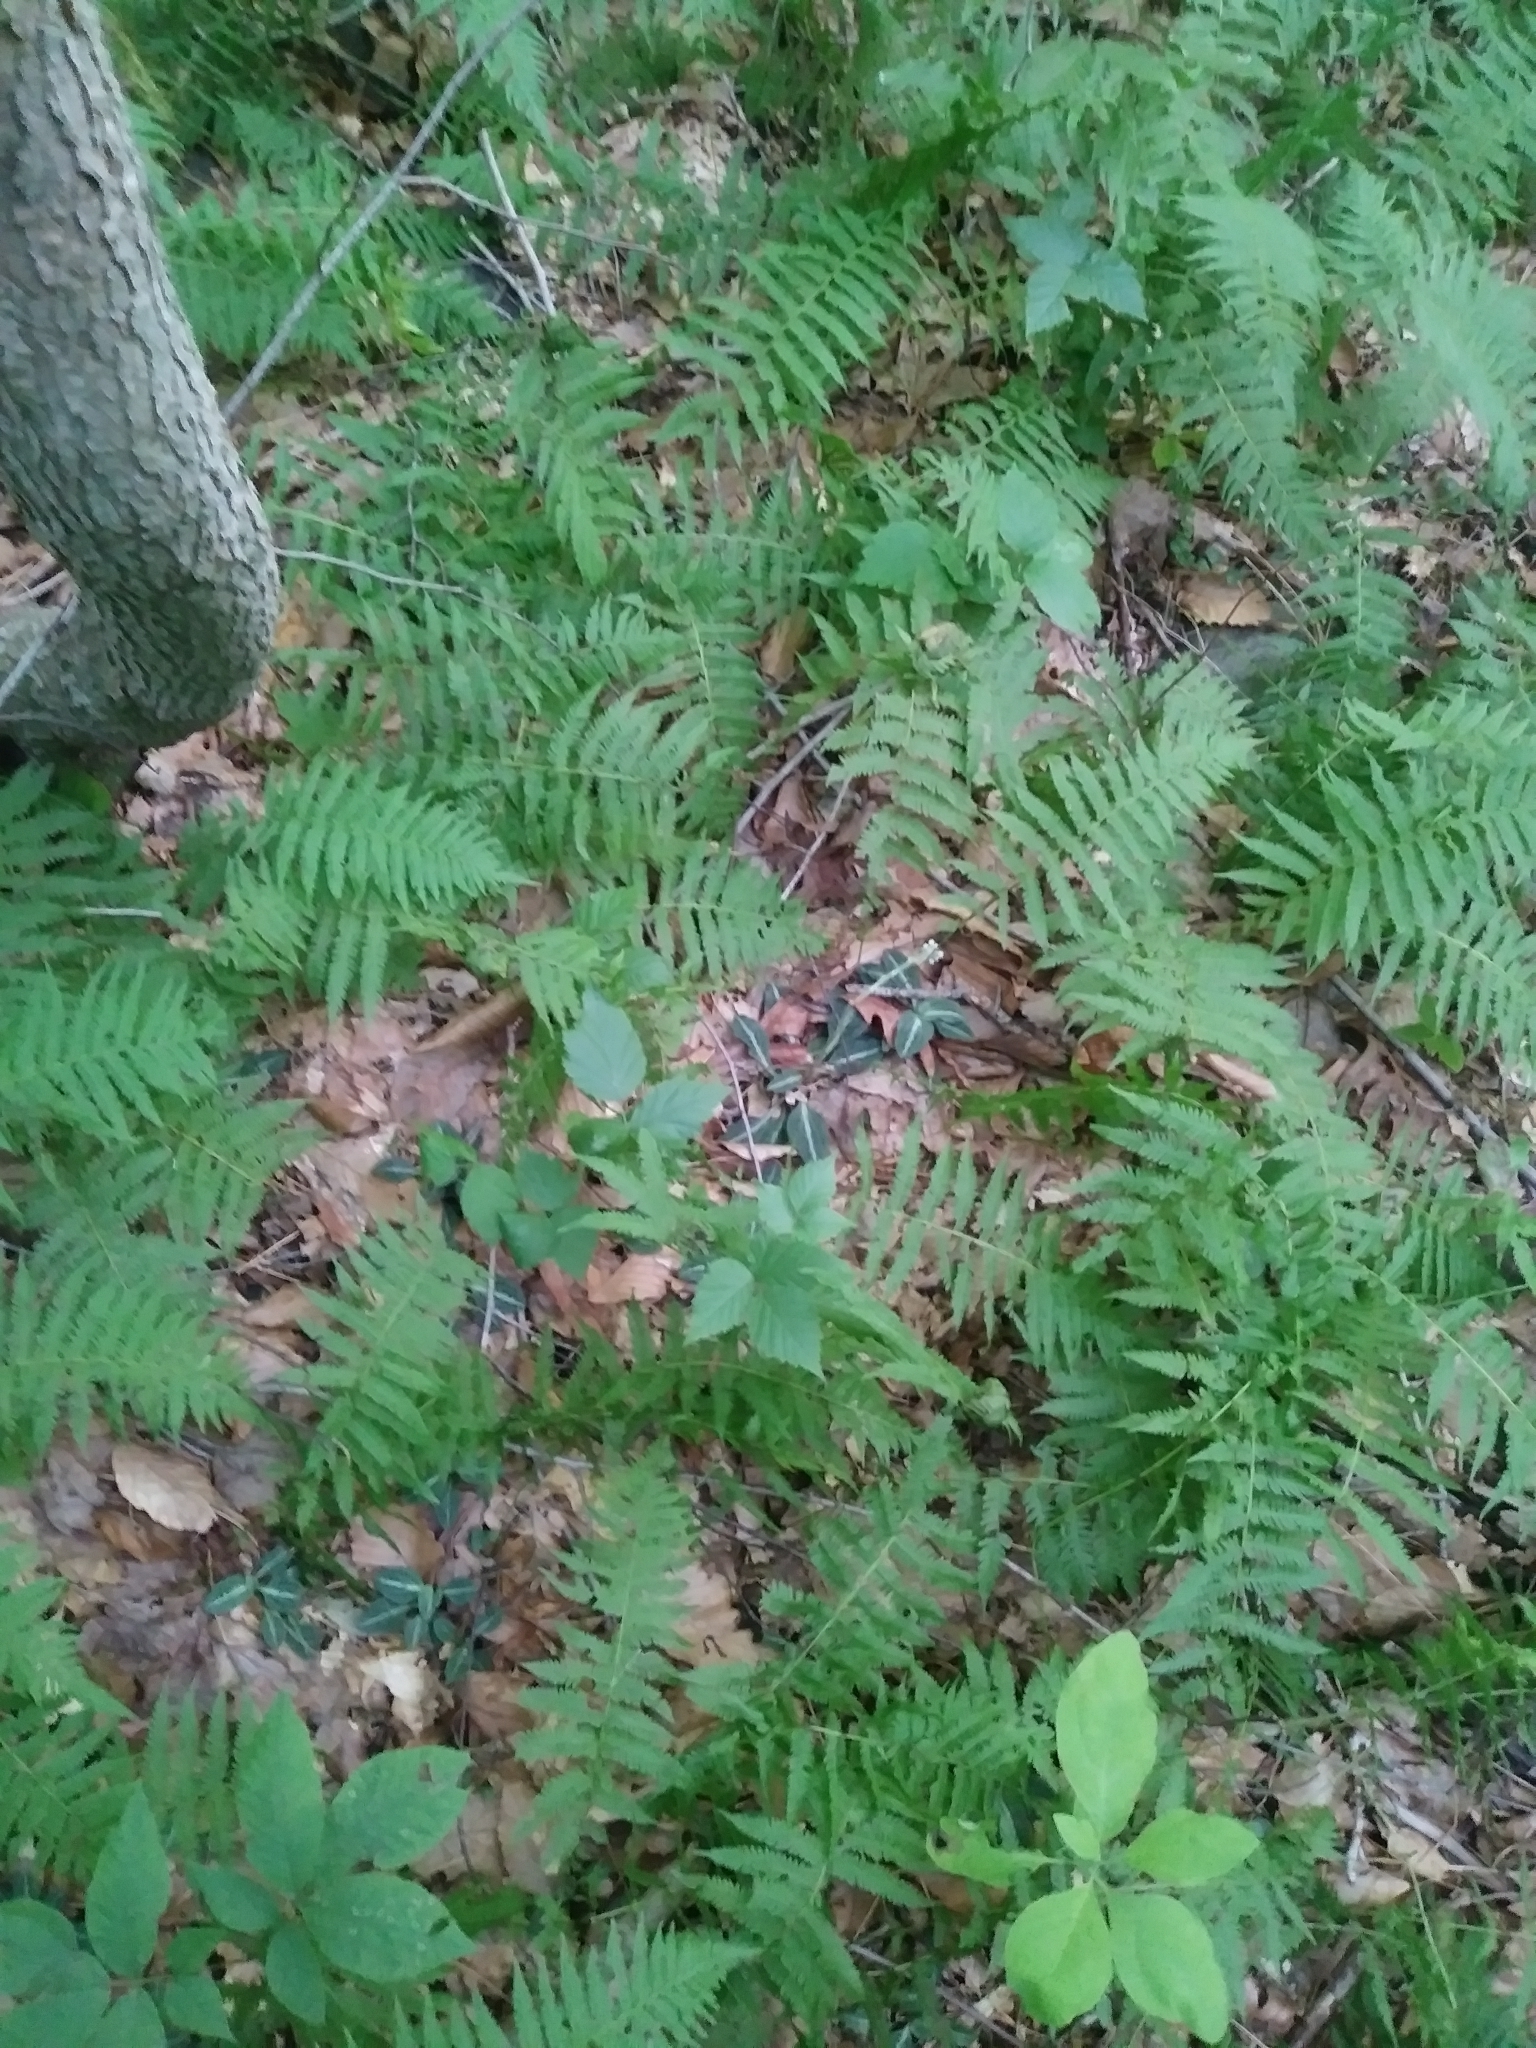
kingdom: Plantae
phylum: Tracheophyta
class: Liliopsida
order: Asparagales
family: Orchidaceae
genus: Goodyera
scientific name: Goodyera pubescens
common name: Downy rattlesnake-plantain
